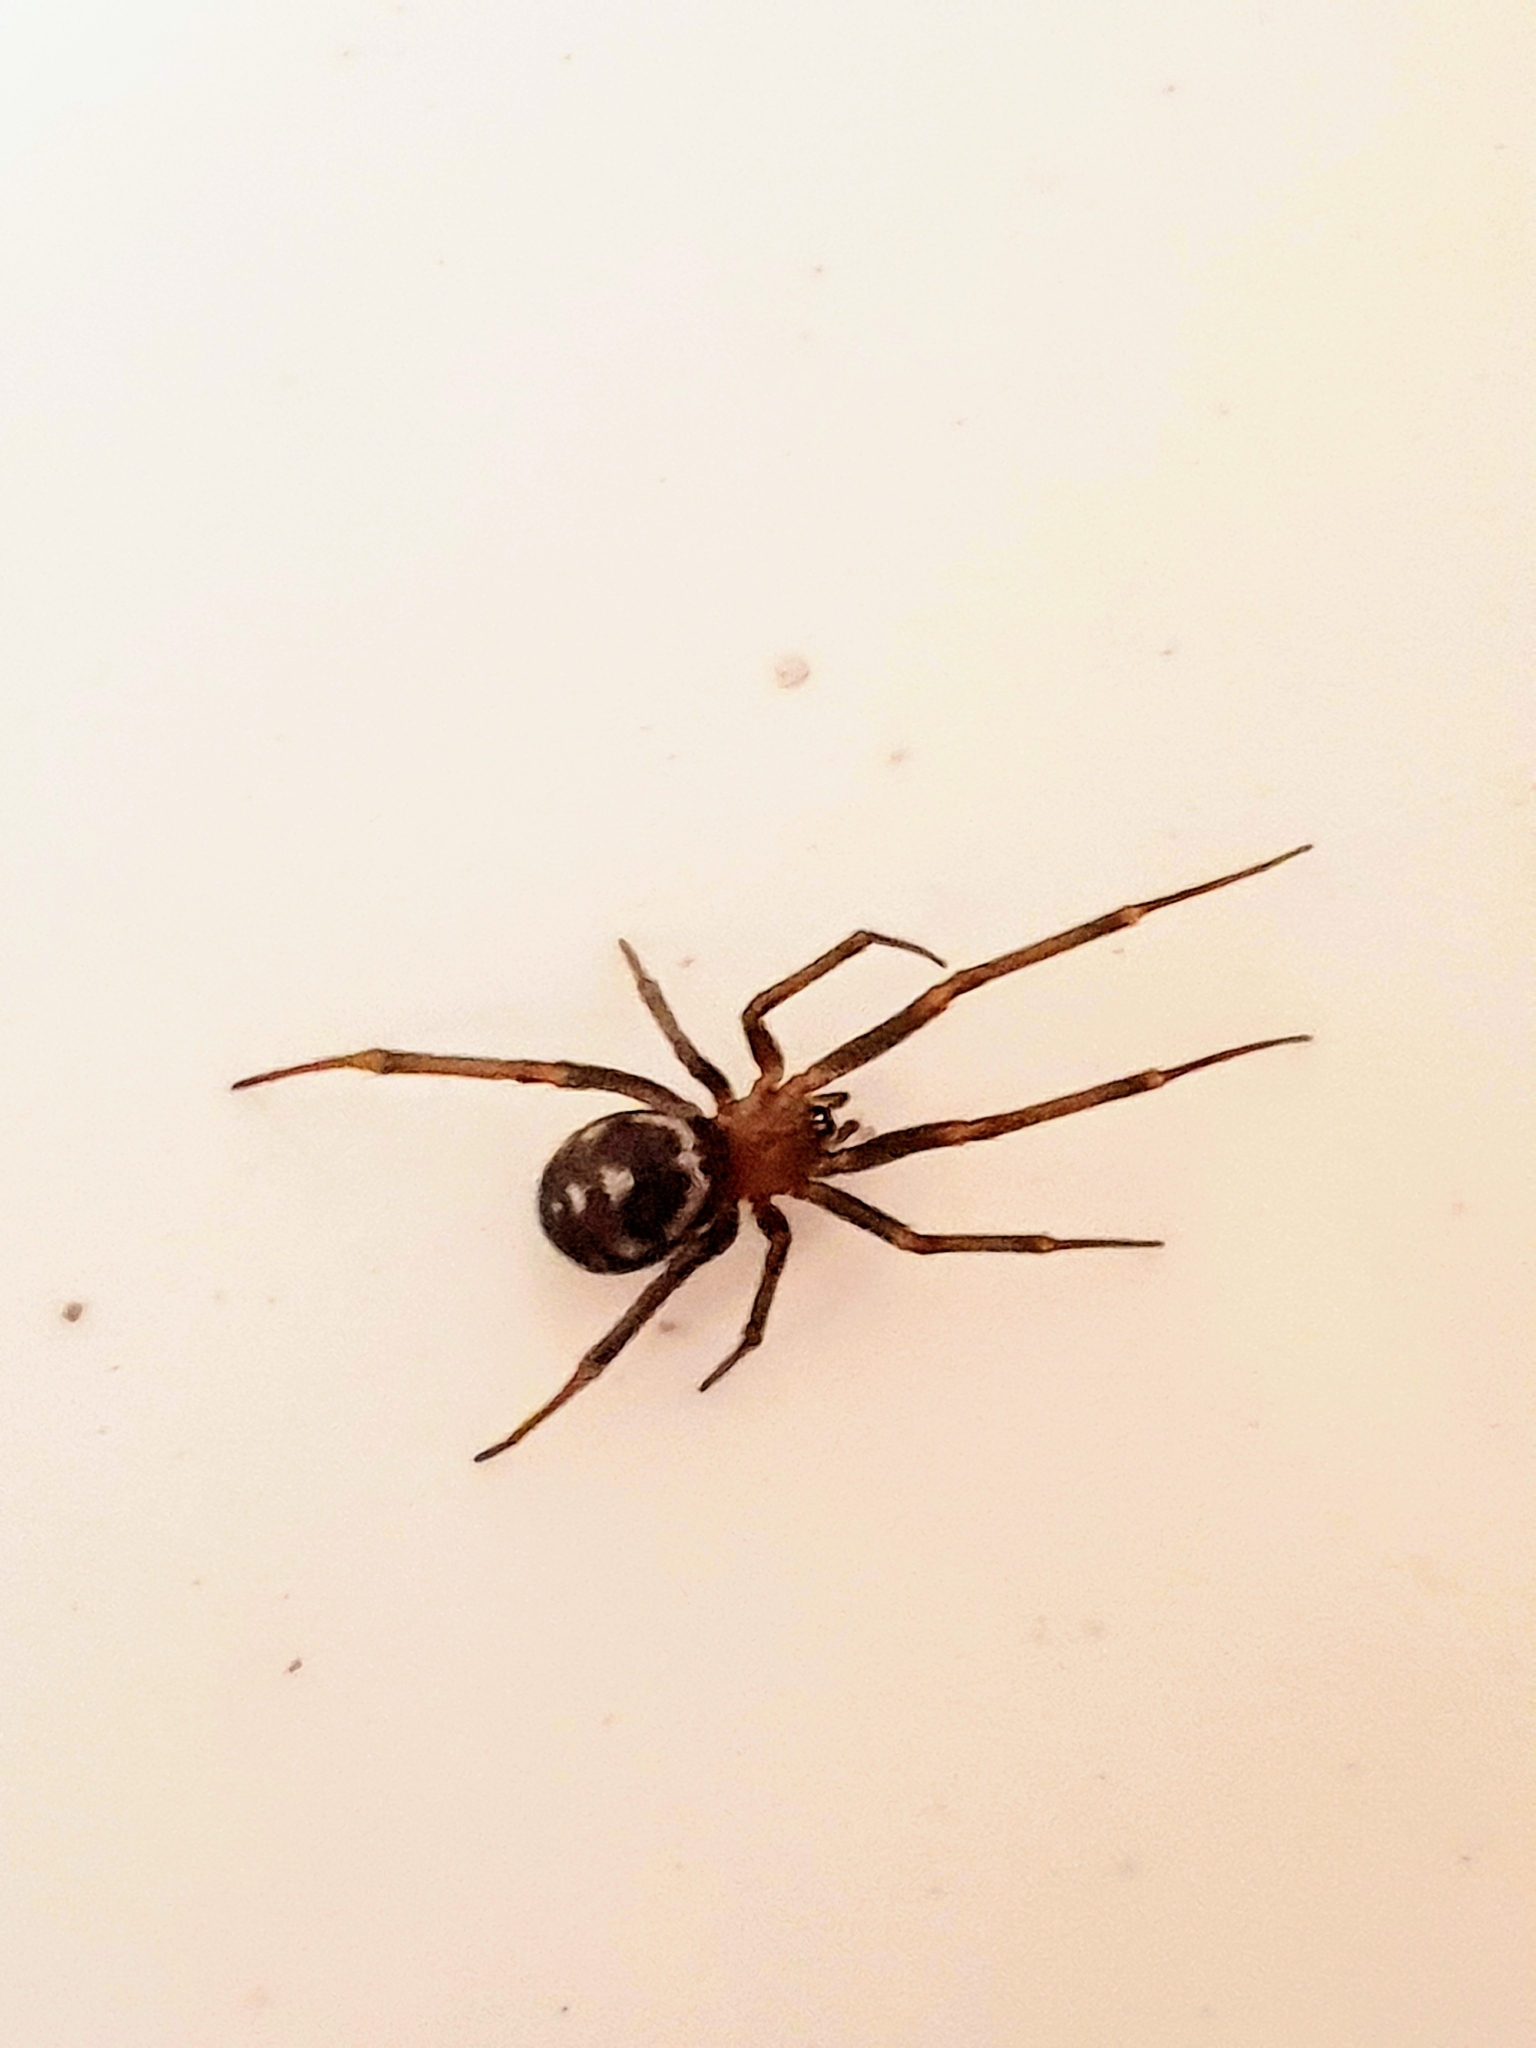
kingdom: Animalia
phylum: Arthropoda
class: Arachnida
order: Araneae
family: Theridiidae
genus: Steatoda
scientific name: Steatoda grossa
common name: False black widow
